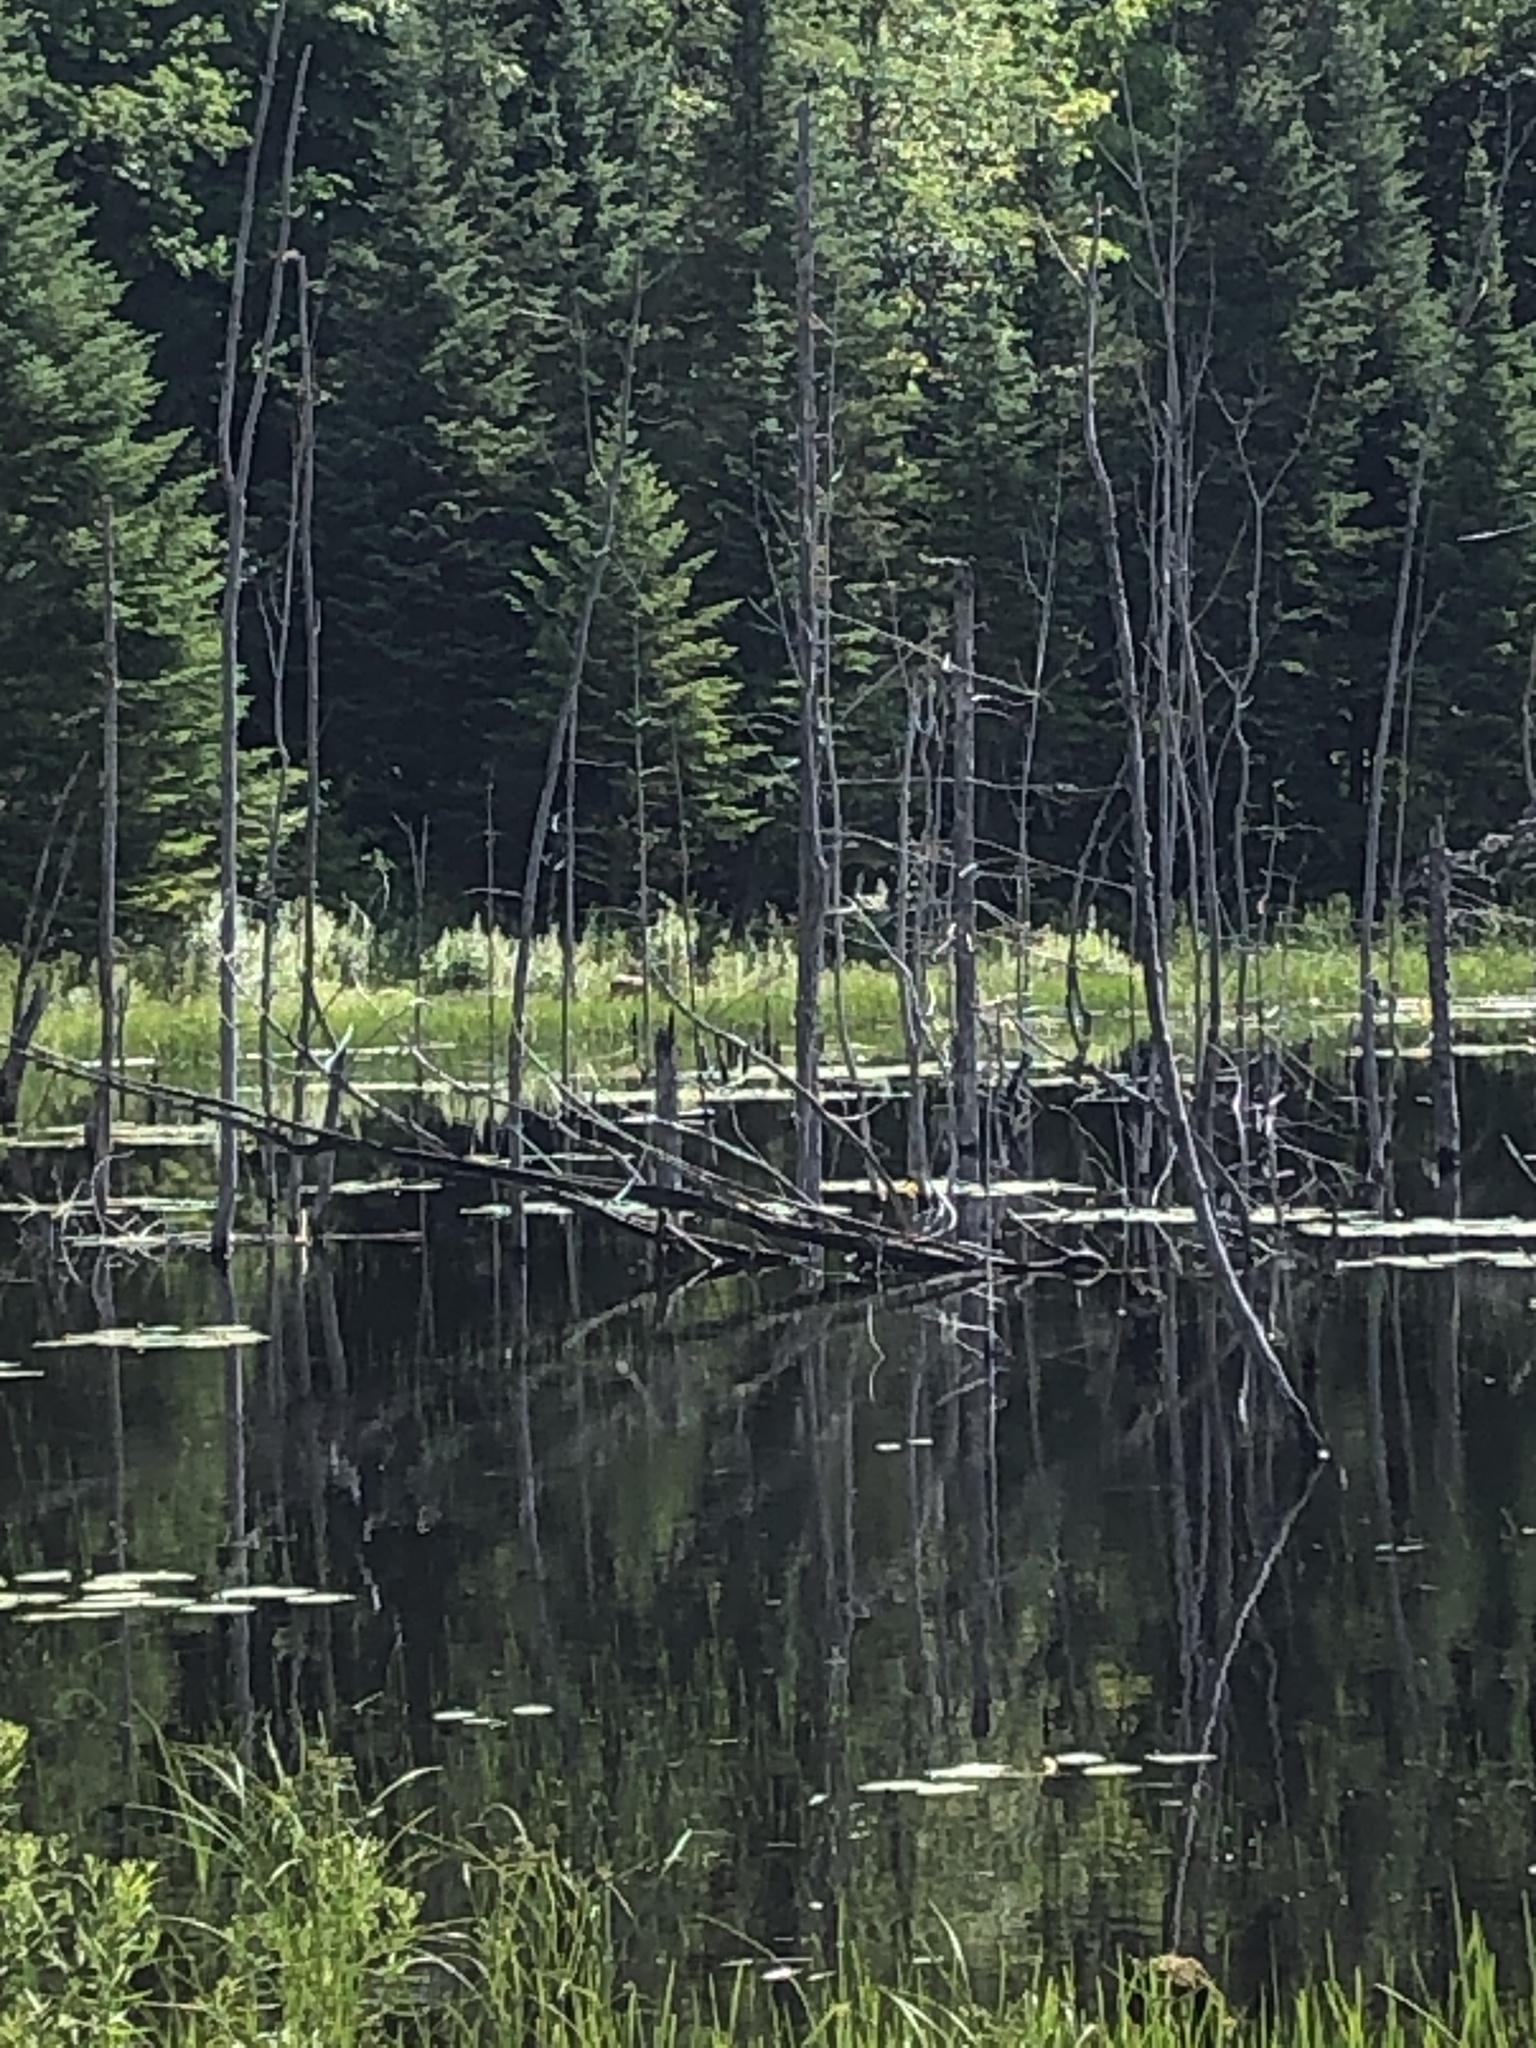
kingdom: Animalia
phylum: Chordata
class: Mammalia
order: Artiodactyla
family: Cervidae
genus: Odocoileus
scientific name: Odocoileus virginianus
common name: White-tailed deer
